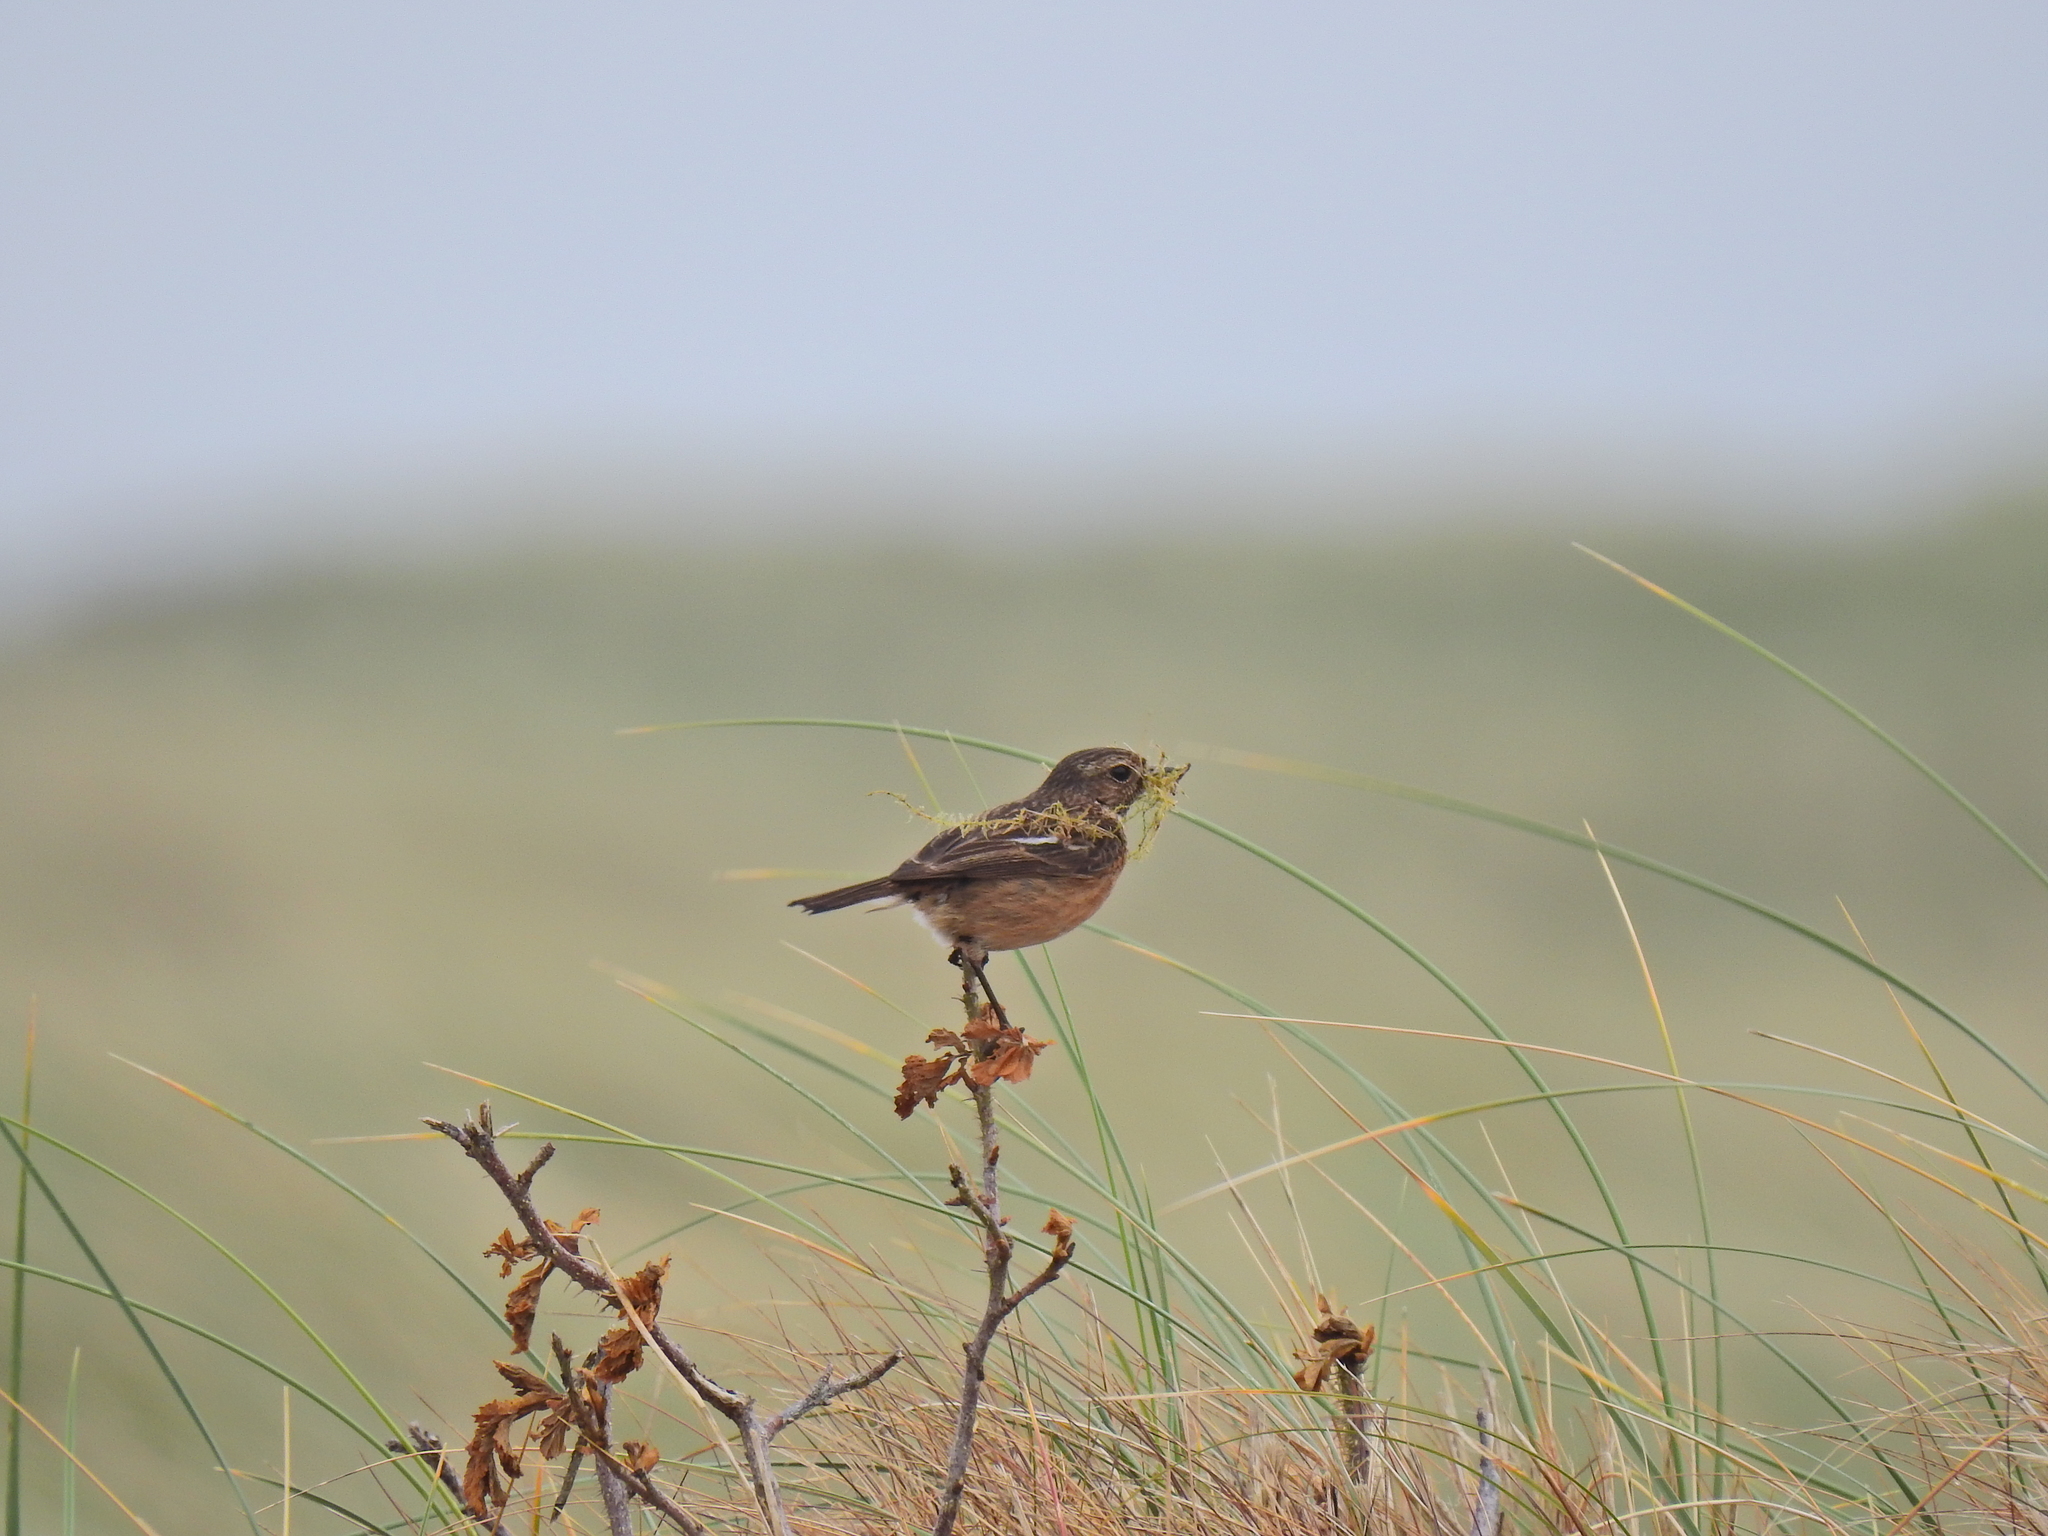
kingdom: Animalia
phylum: Chordata
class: Aves
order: Passeriformes
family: Muscicapidae
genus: Saxicola
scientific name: Saxicola rubicola
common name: European stonechat
